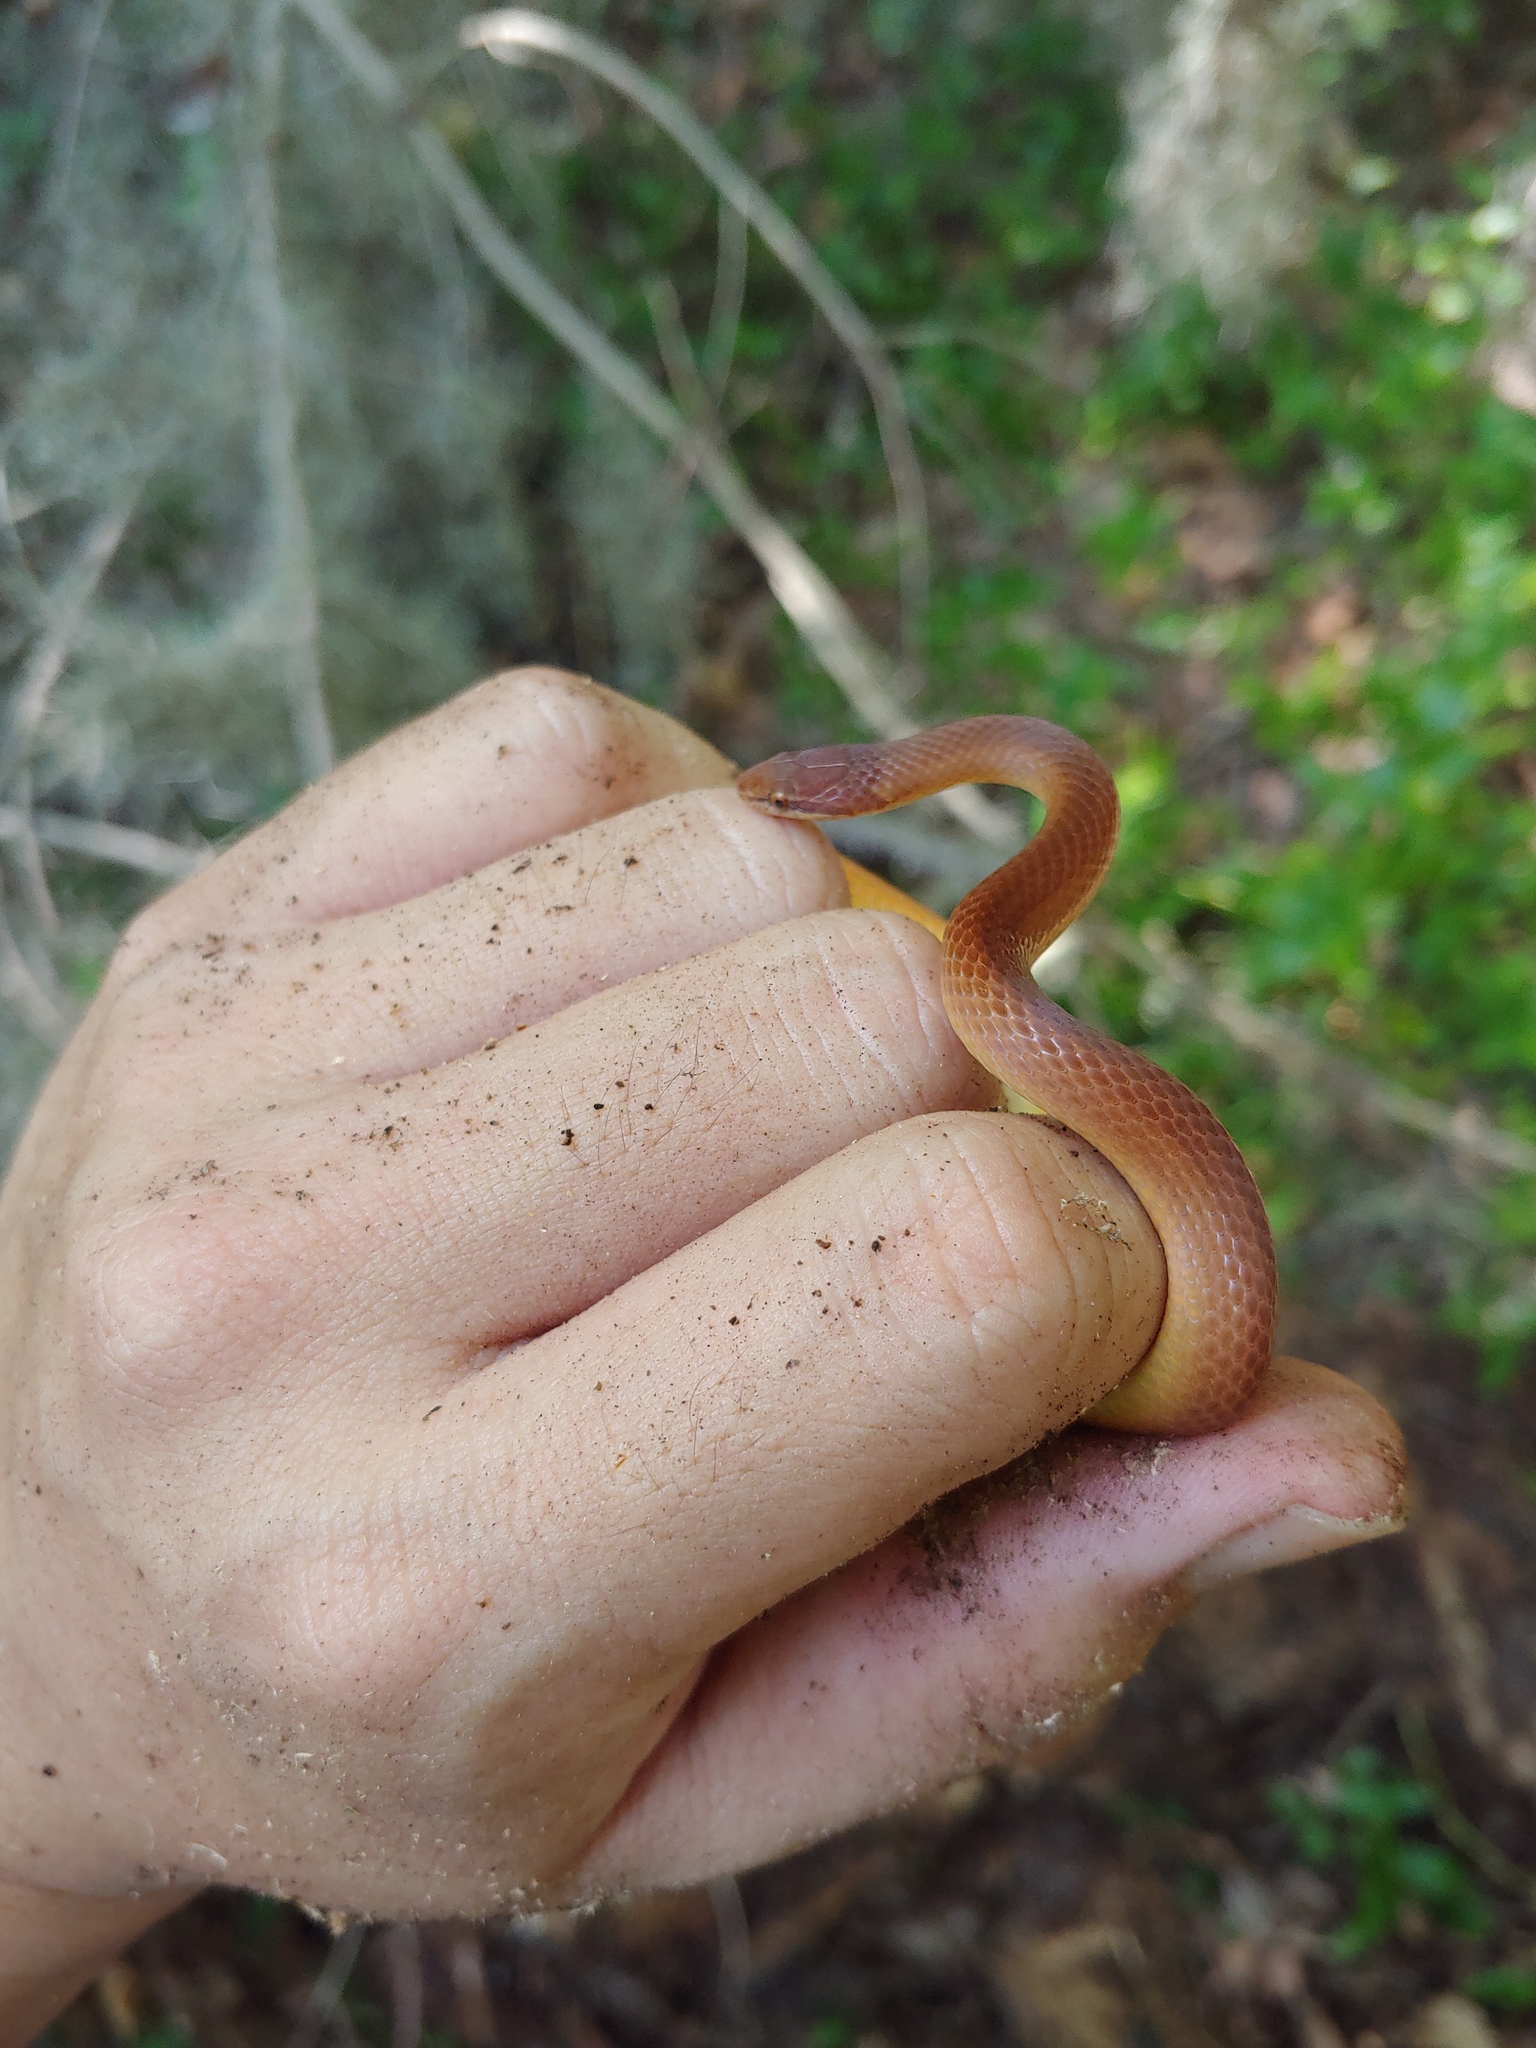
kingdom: Animalia
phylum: Chordata
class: Squamata
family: Colubridae
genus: Rhadinaea
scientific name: Rhadinaea flavilata
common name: Pine woods littersnake
